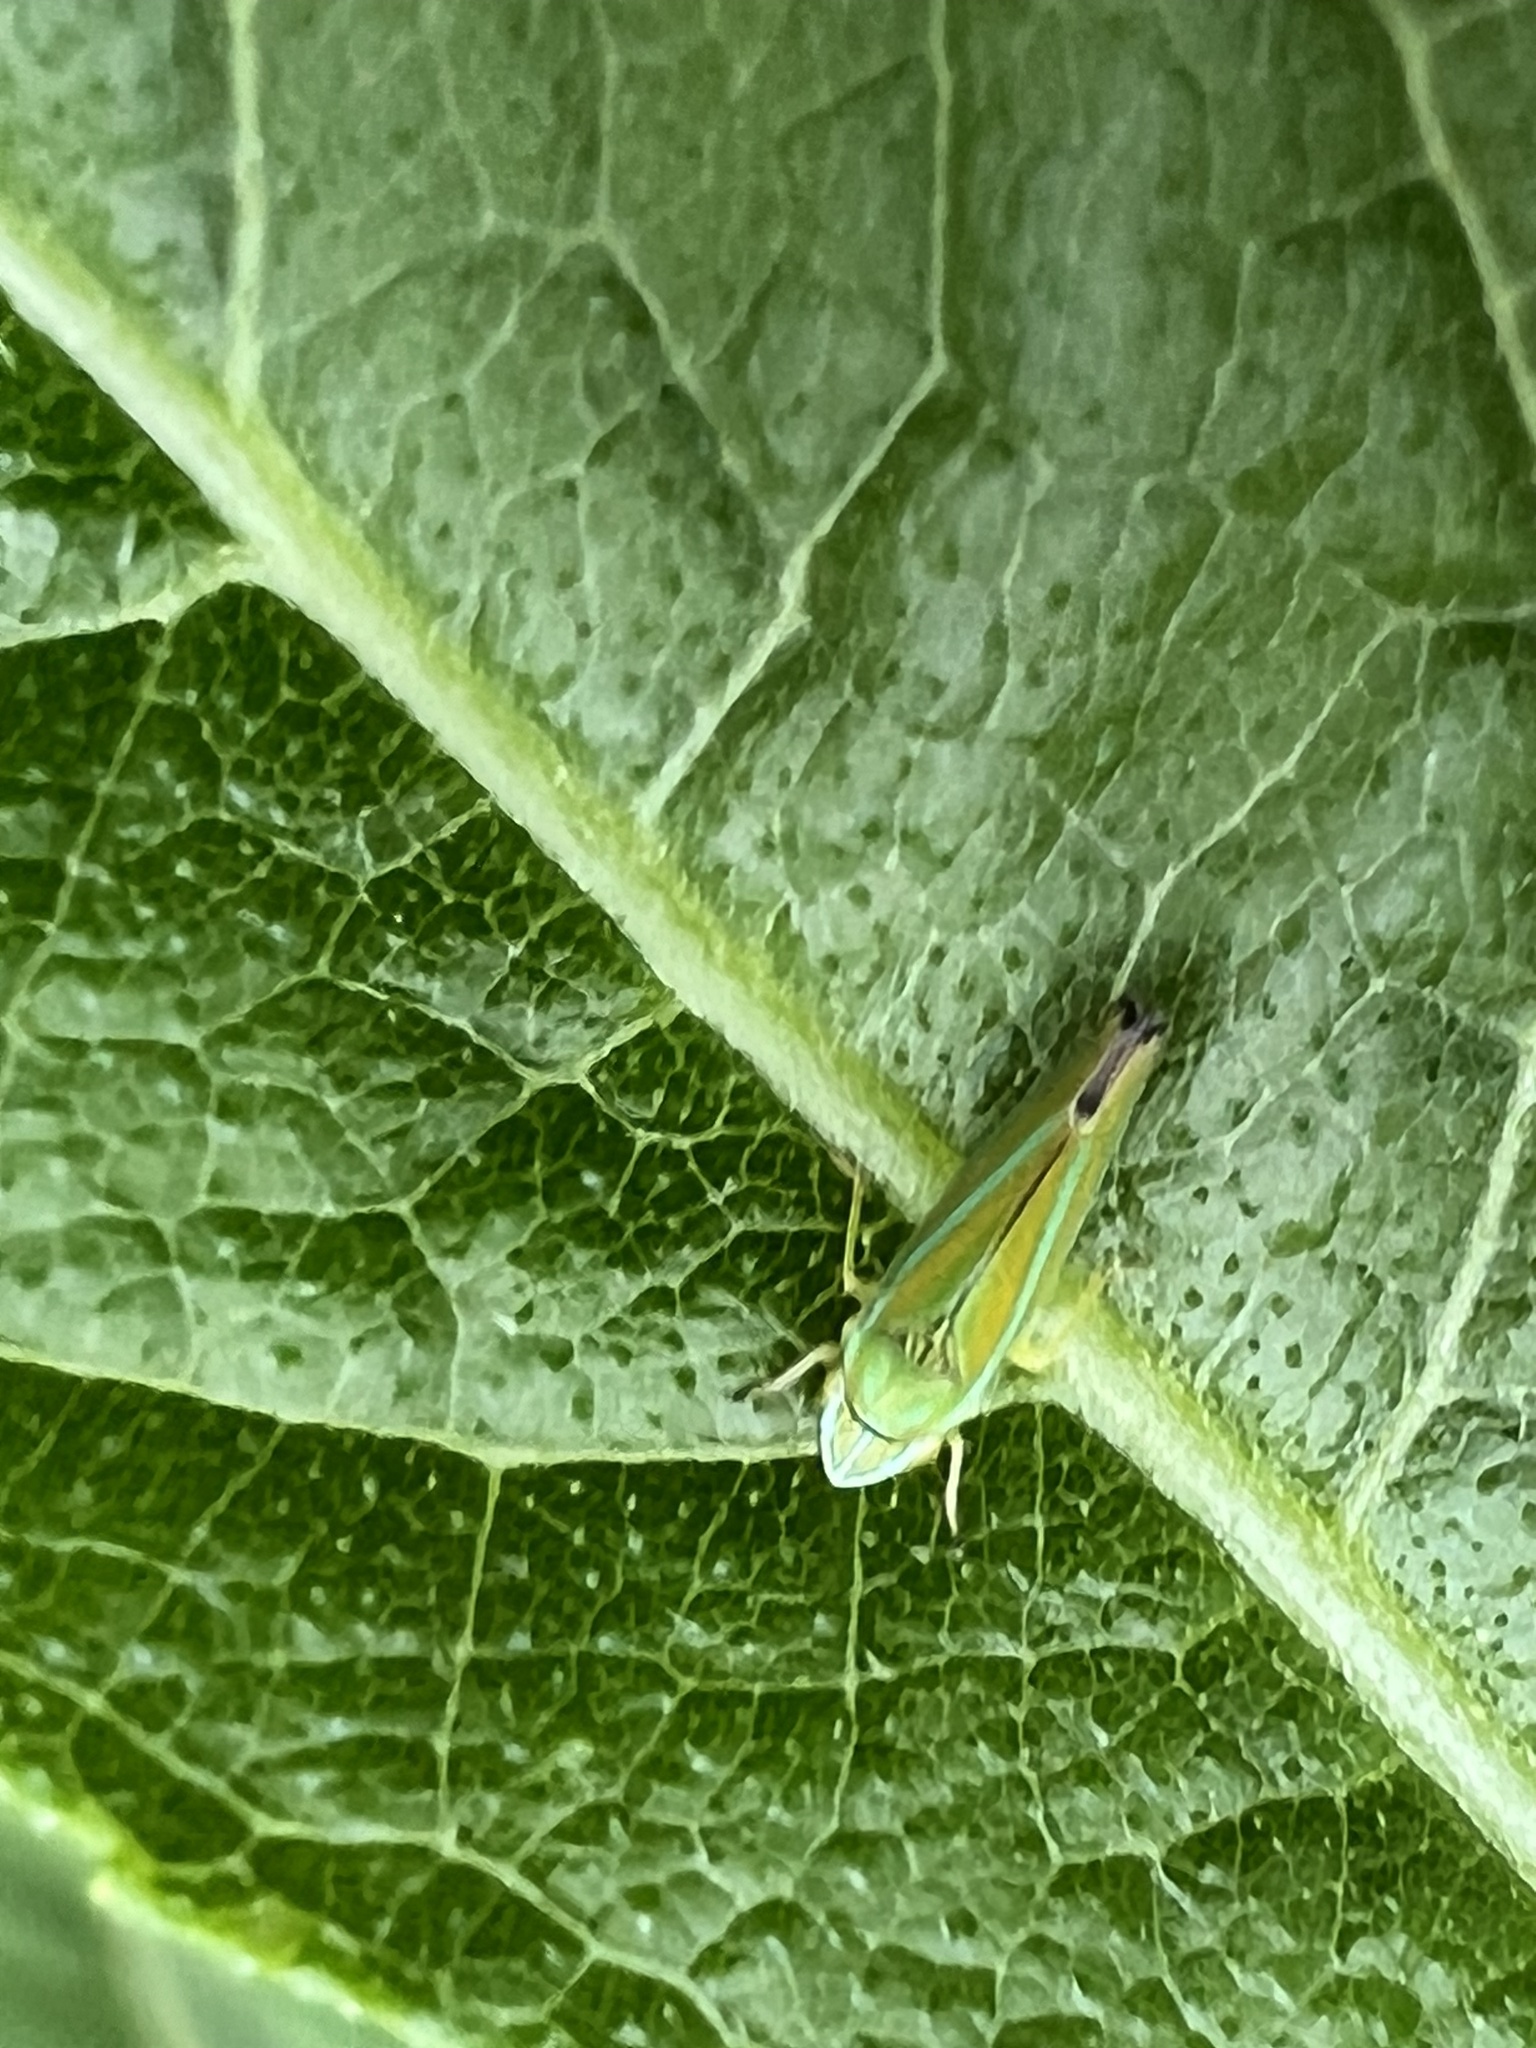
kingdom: Animalia
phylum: Arthropoda
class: Insecta
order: Hemiptera
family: Cicadellidae
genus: Graphocephala
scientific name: Graphocephala versuta
